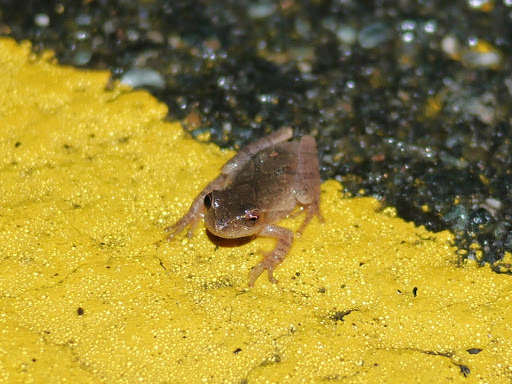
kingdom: Animalia
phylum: Chordata
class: Amphibia
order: Anura
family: Hylidae
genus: Pseudacris
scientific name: Pseudacris crucifer
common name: Spring peeper
